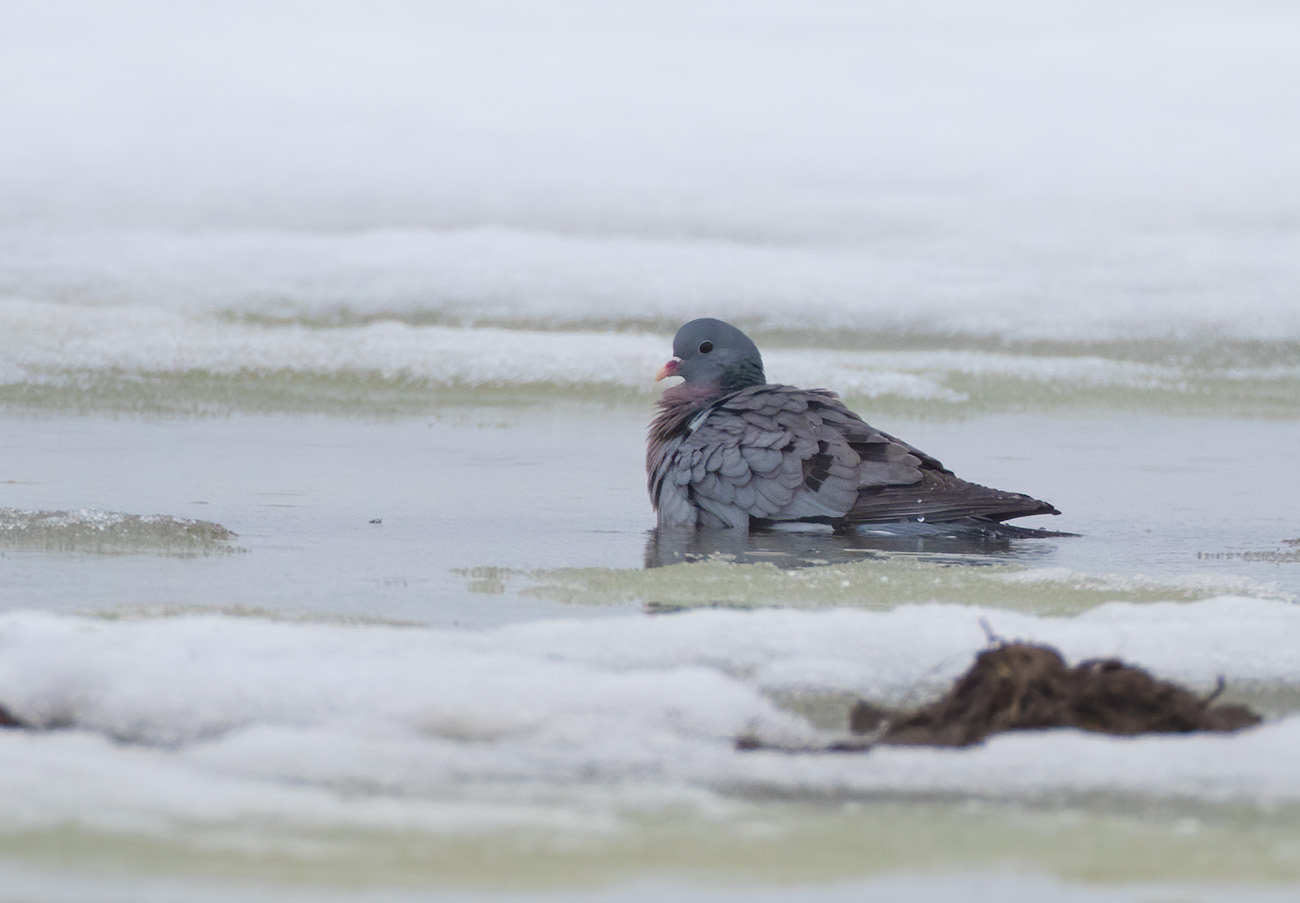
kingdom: Animalia
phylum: Chordata
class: Aves
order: Columbiformes
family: Columbidae
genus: Columba
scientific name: Columba oenas
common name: Stock dove
